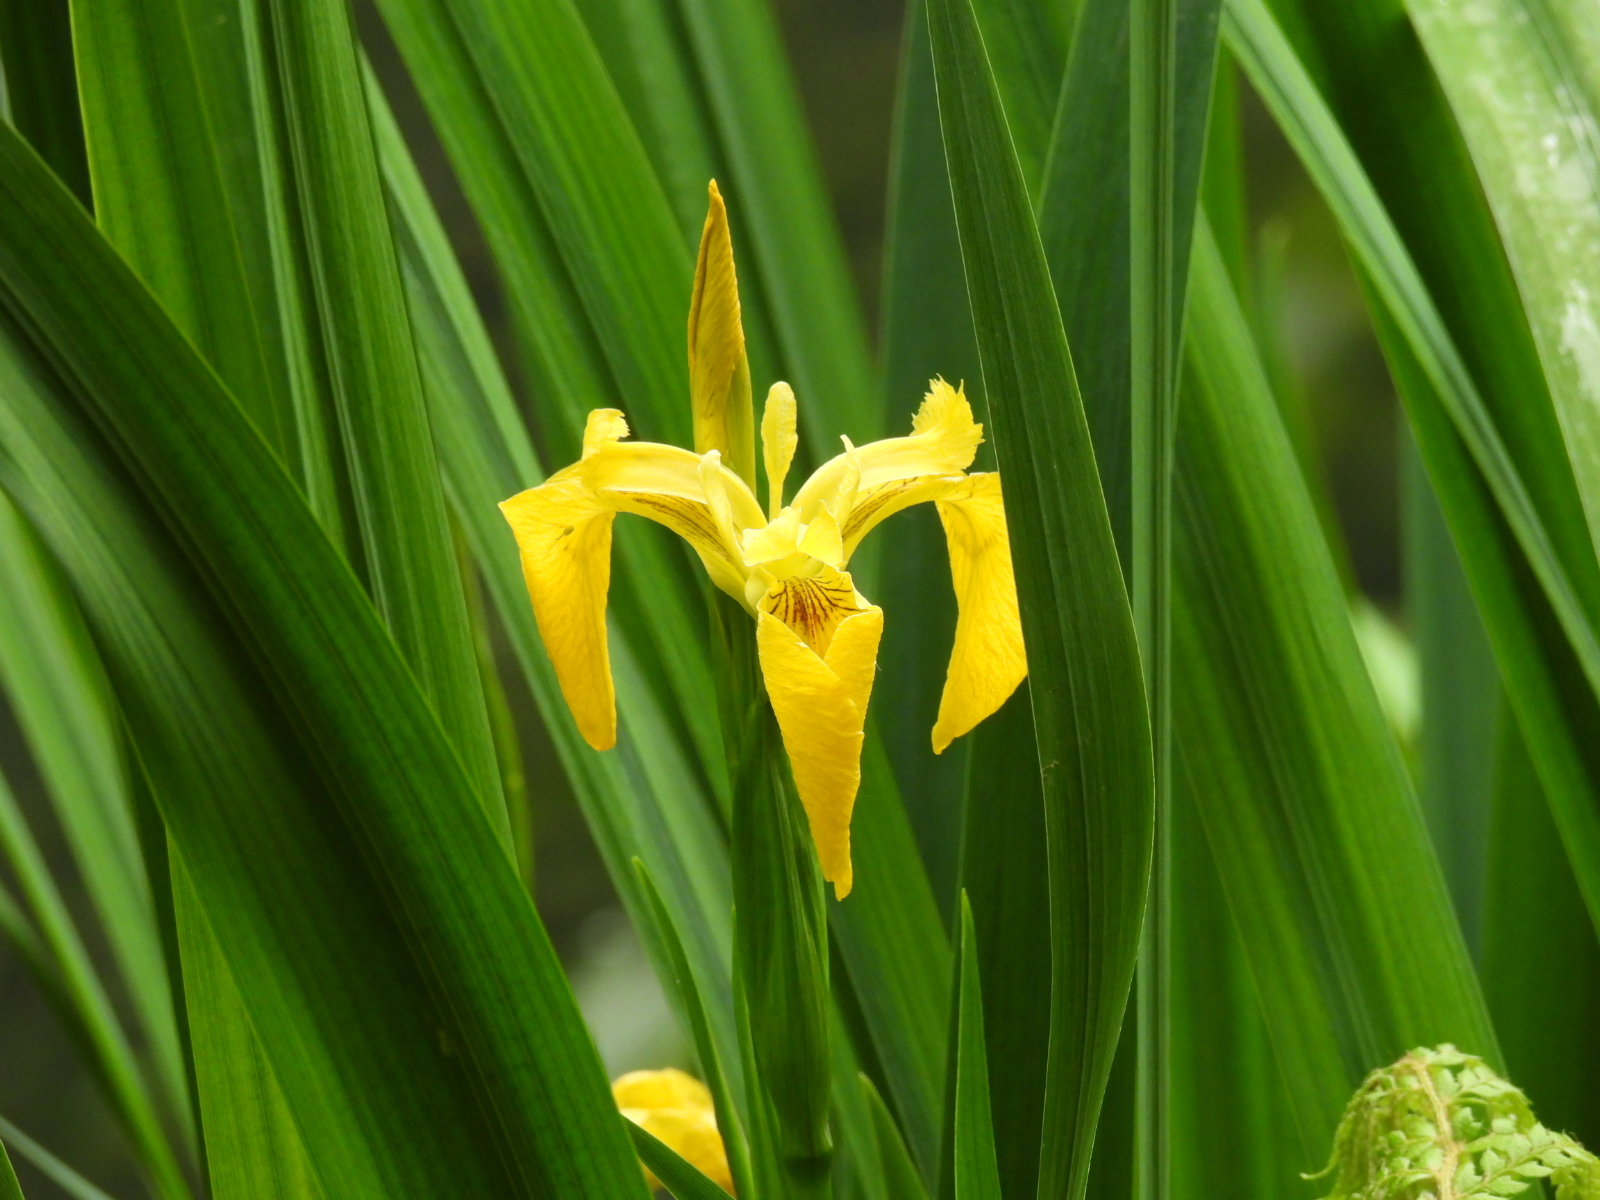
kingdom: Plantae
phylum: Tracheophyta
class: Liliopsida
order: Asparagales
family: Iridaceae
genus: Iris
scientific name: Iris pseudacorus
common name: Yellow flag
